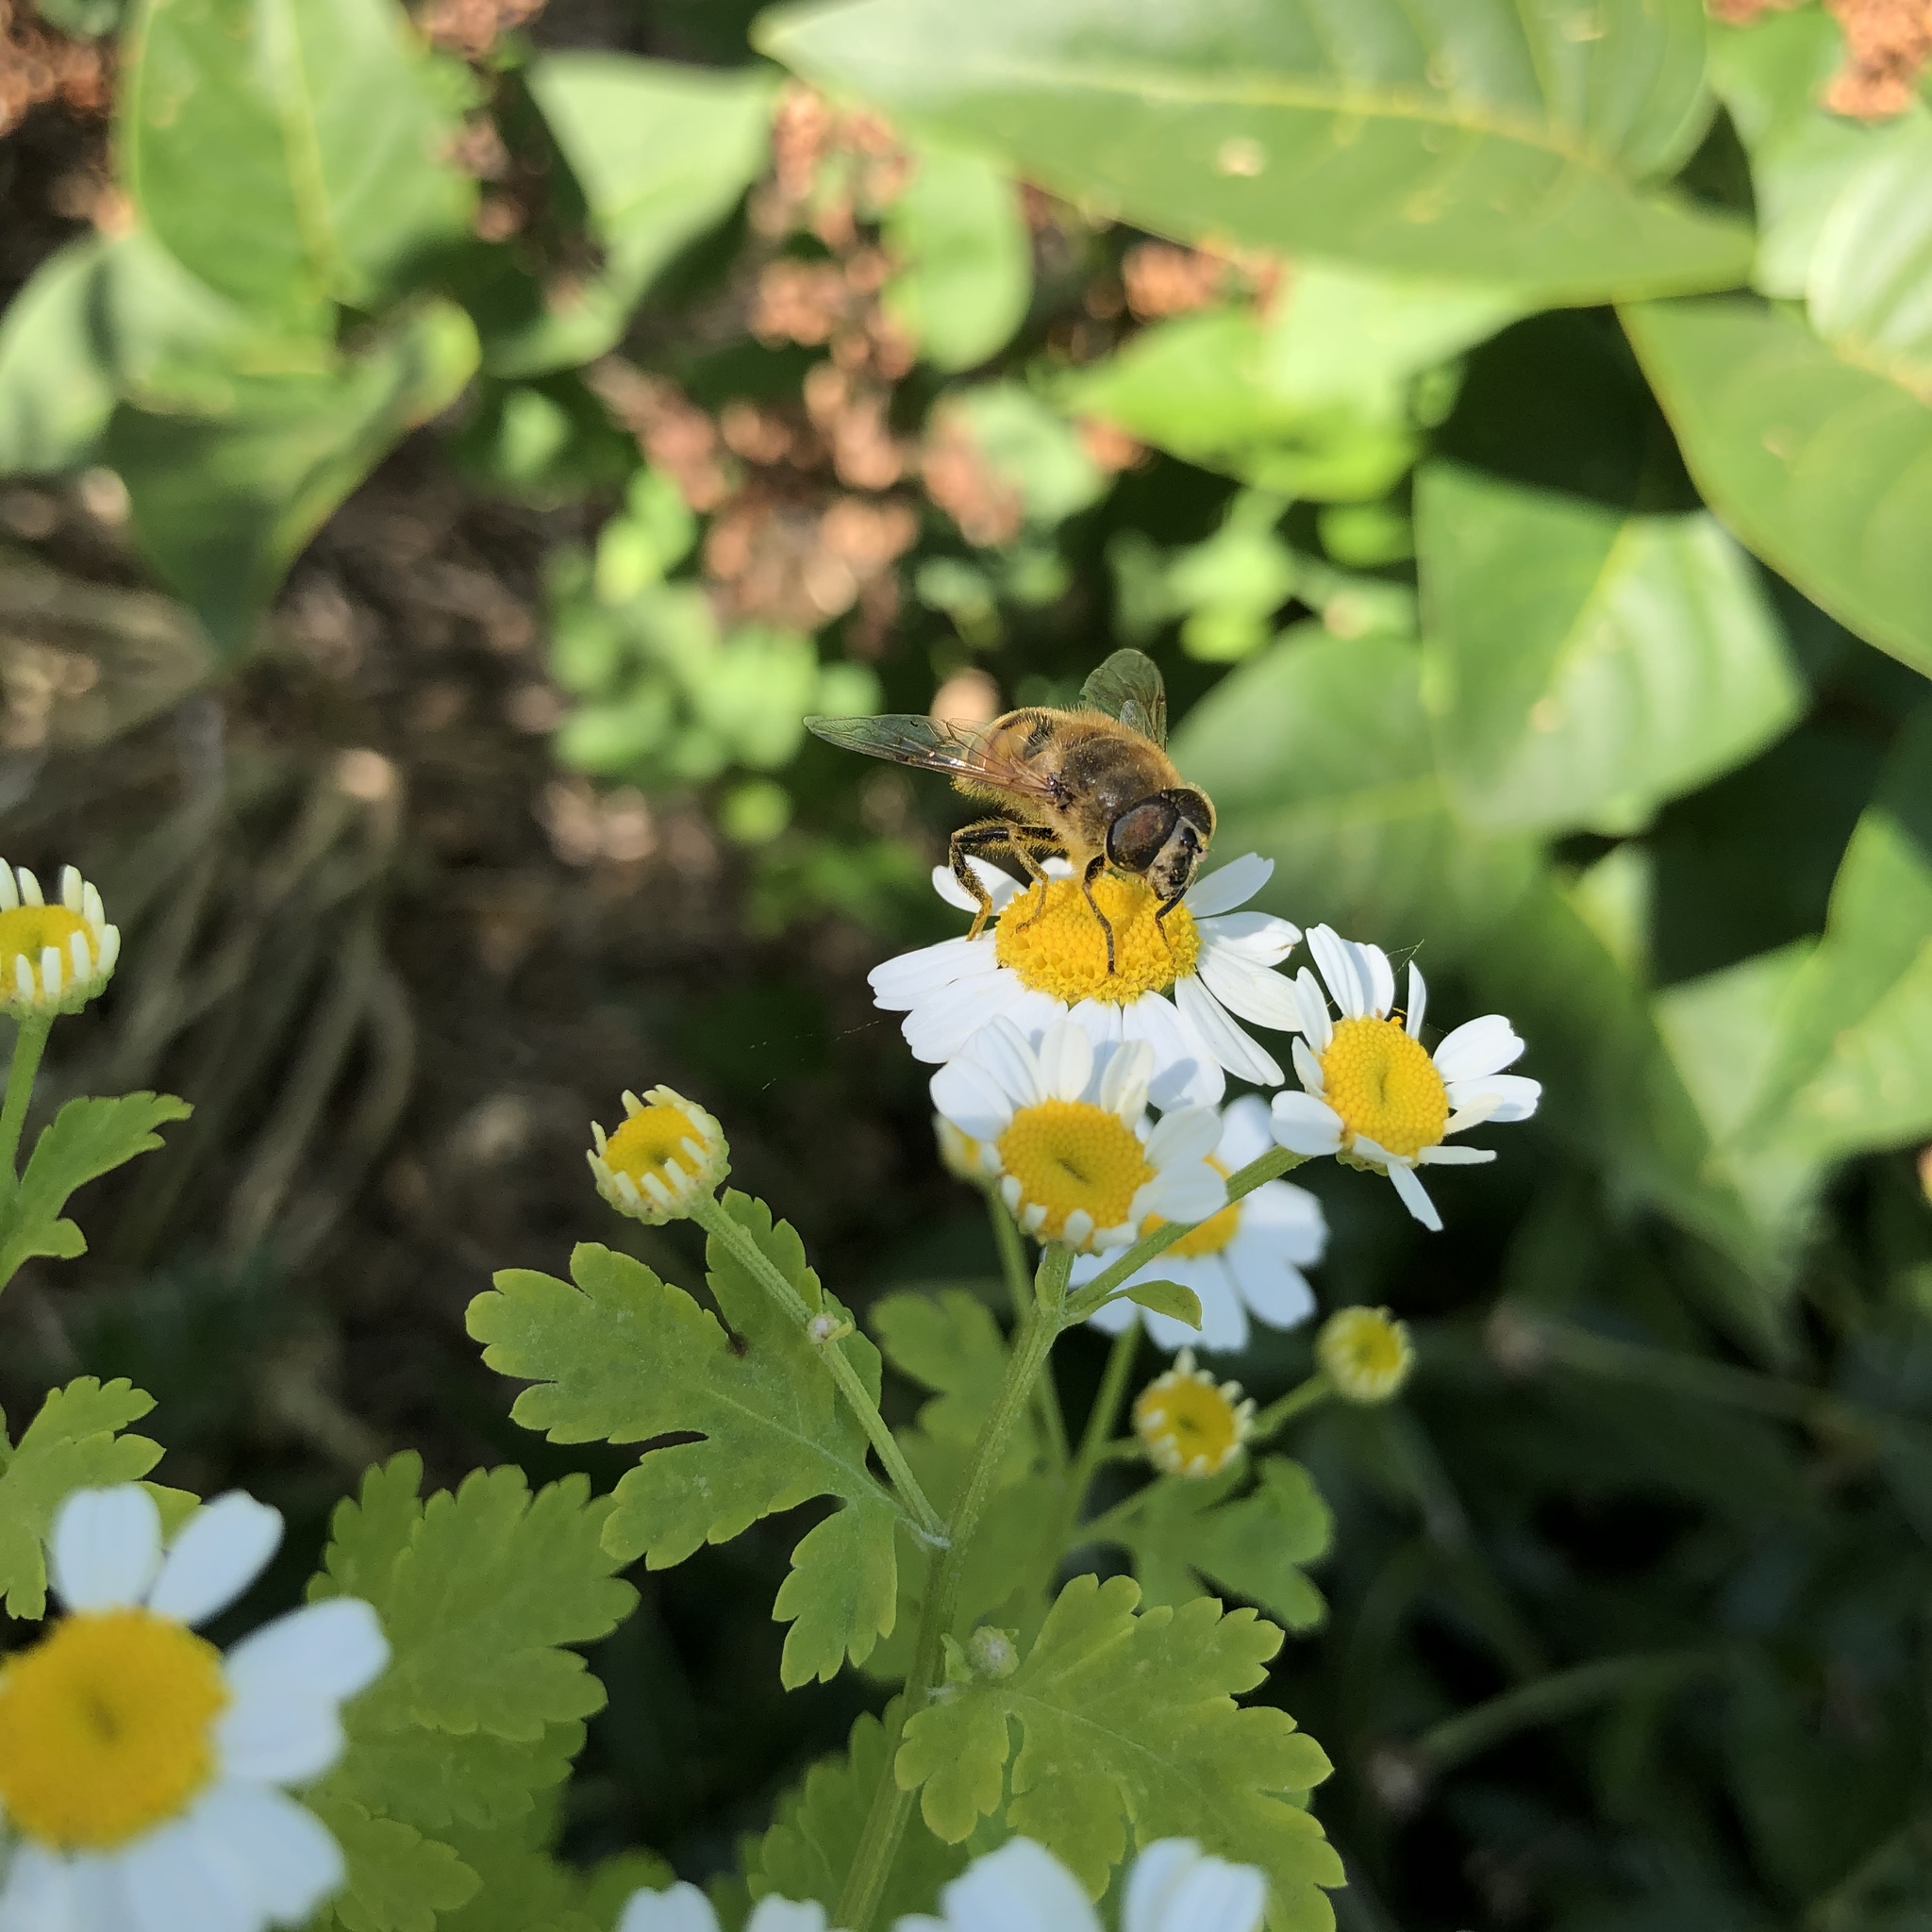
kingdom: Animalia
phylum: Arthropoda
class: Insecta
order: Diptera
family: Syrphidae
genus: Eristalis
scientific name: Eristalis tenax
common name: Drone fly
